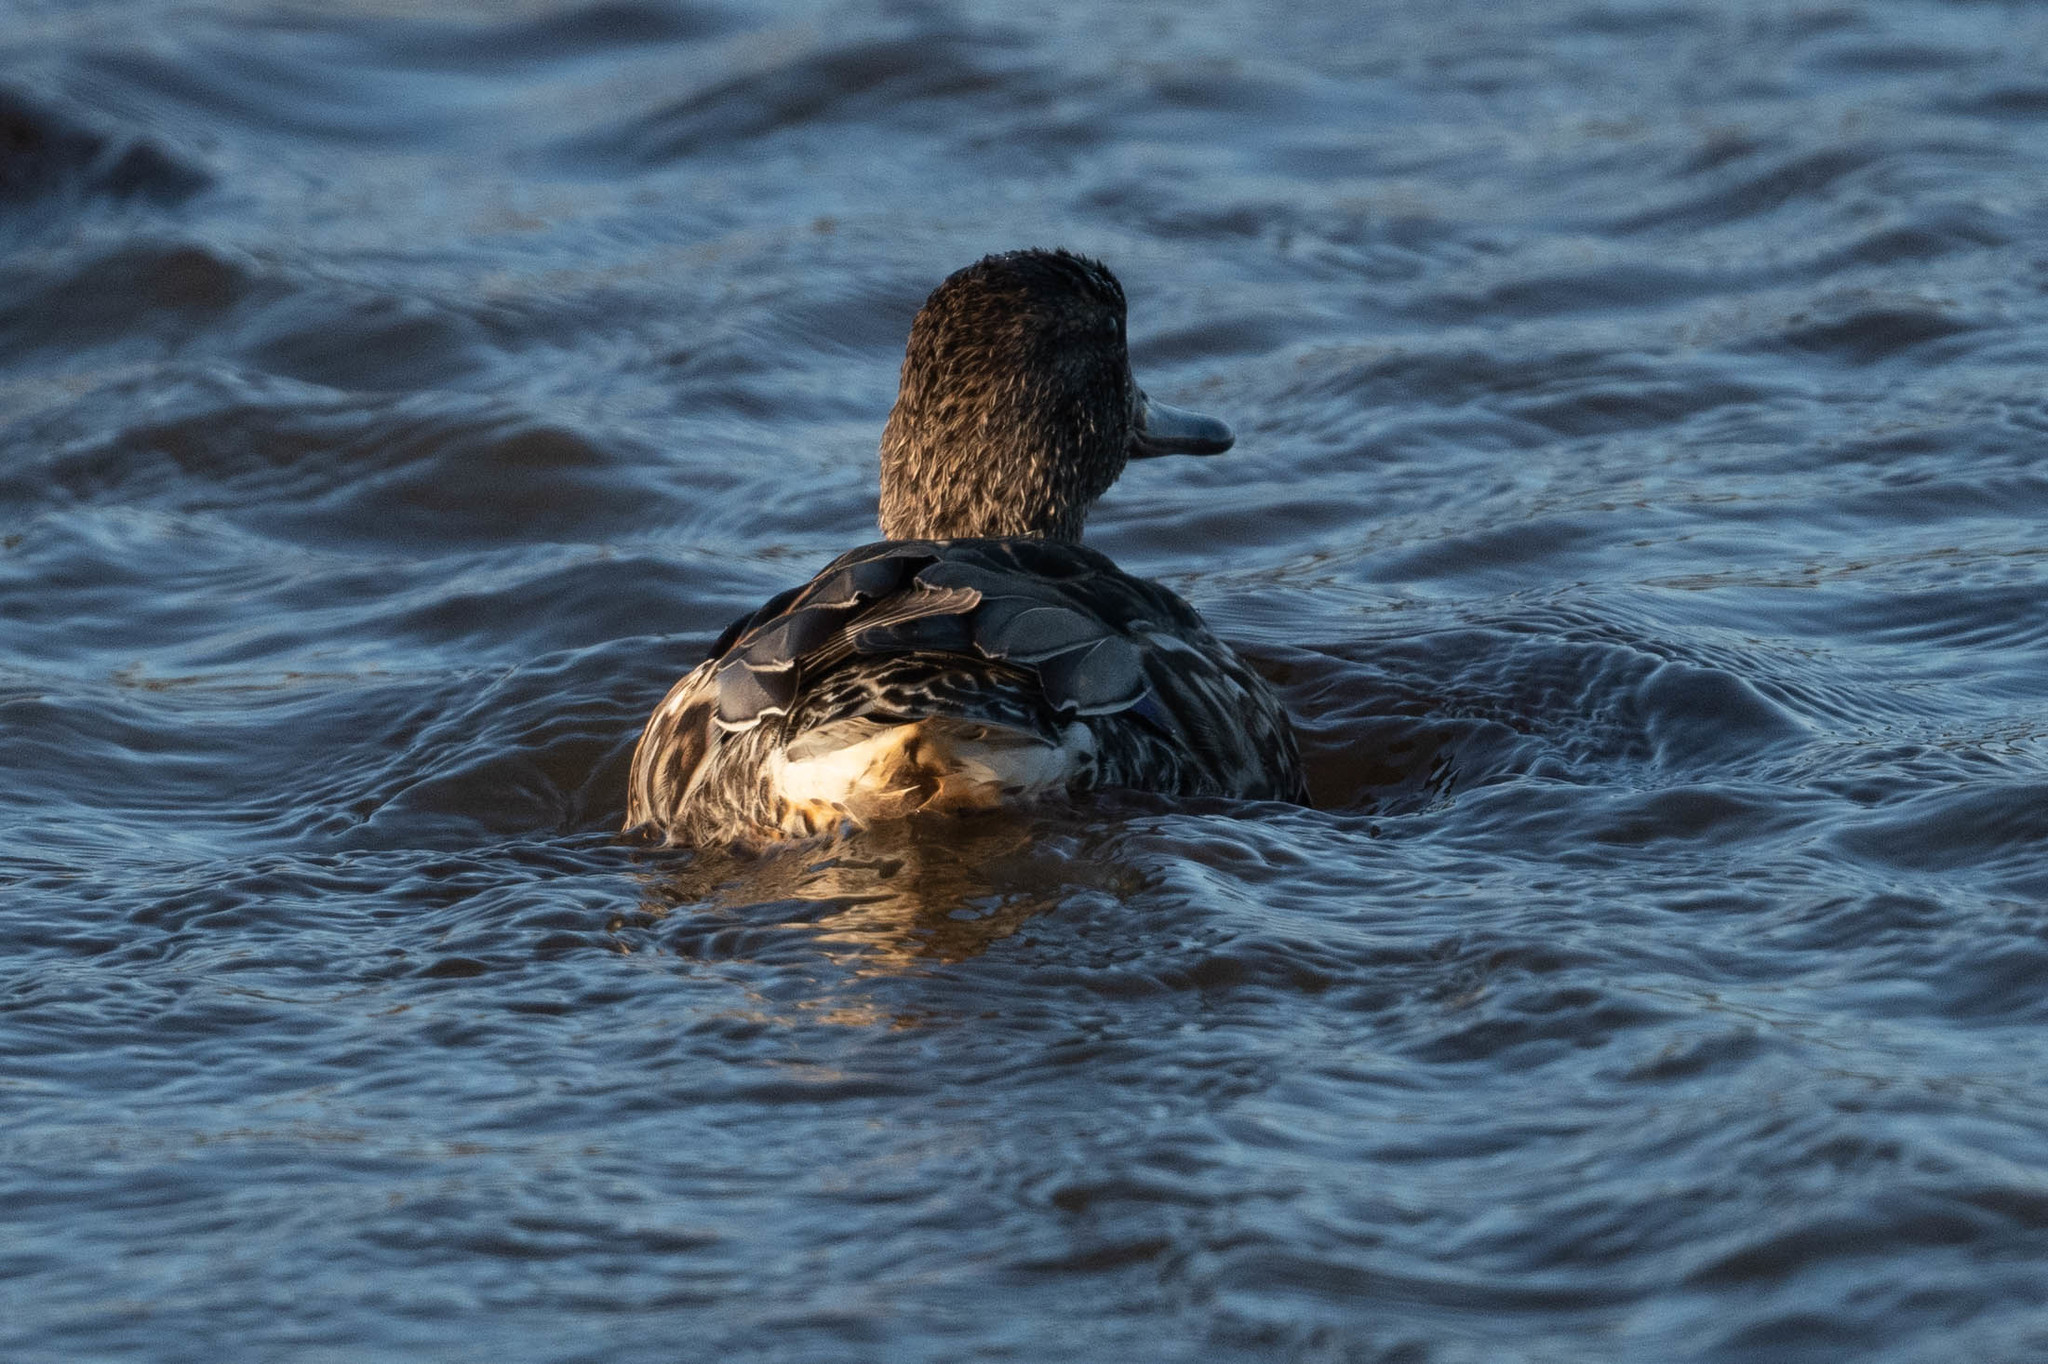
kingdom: Animalia
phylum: Chordata
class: Aves
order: Anseriformes
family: Anatidae
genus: Anas
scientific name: Anas crecca
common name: Eurasian teal
